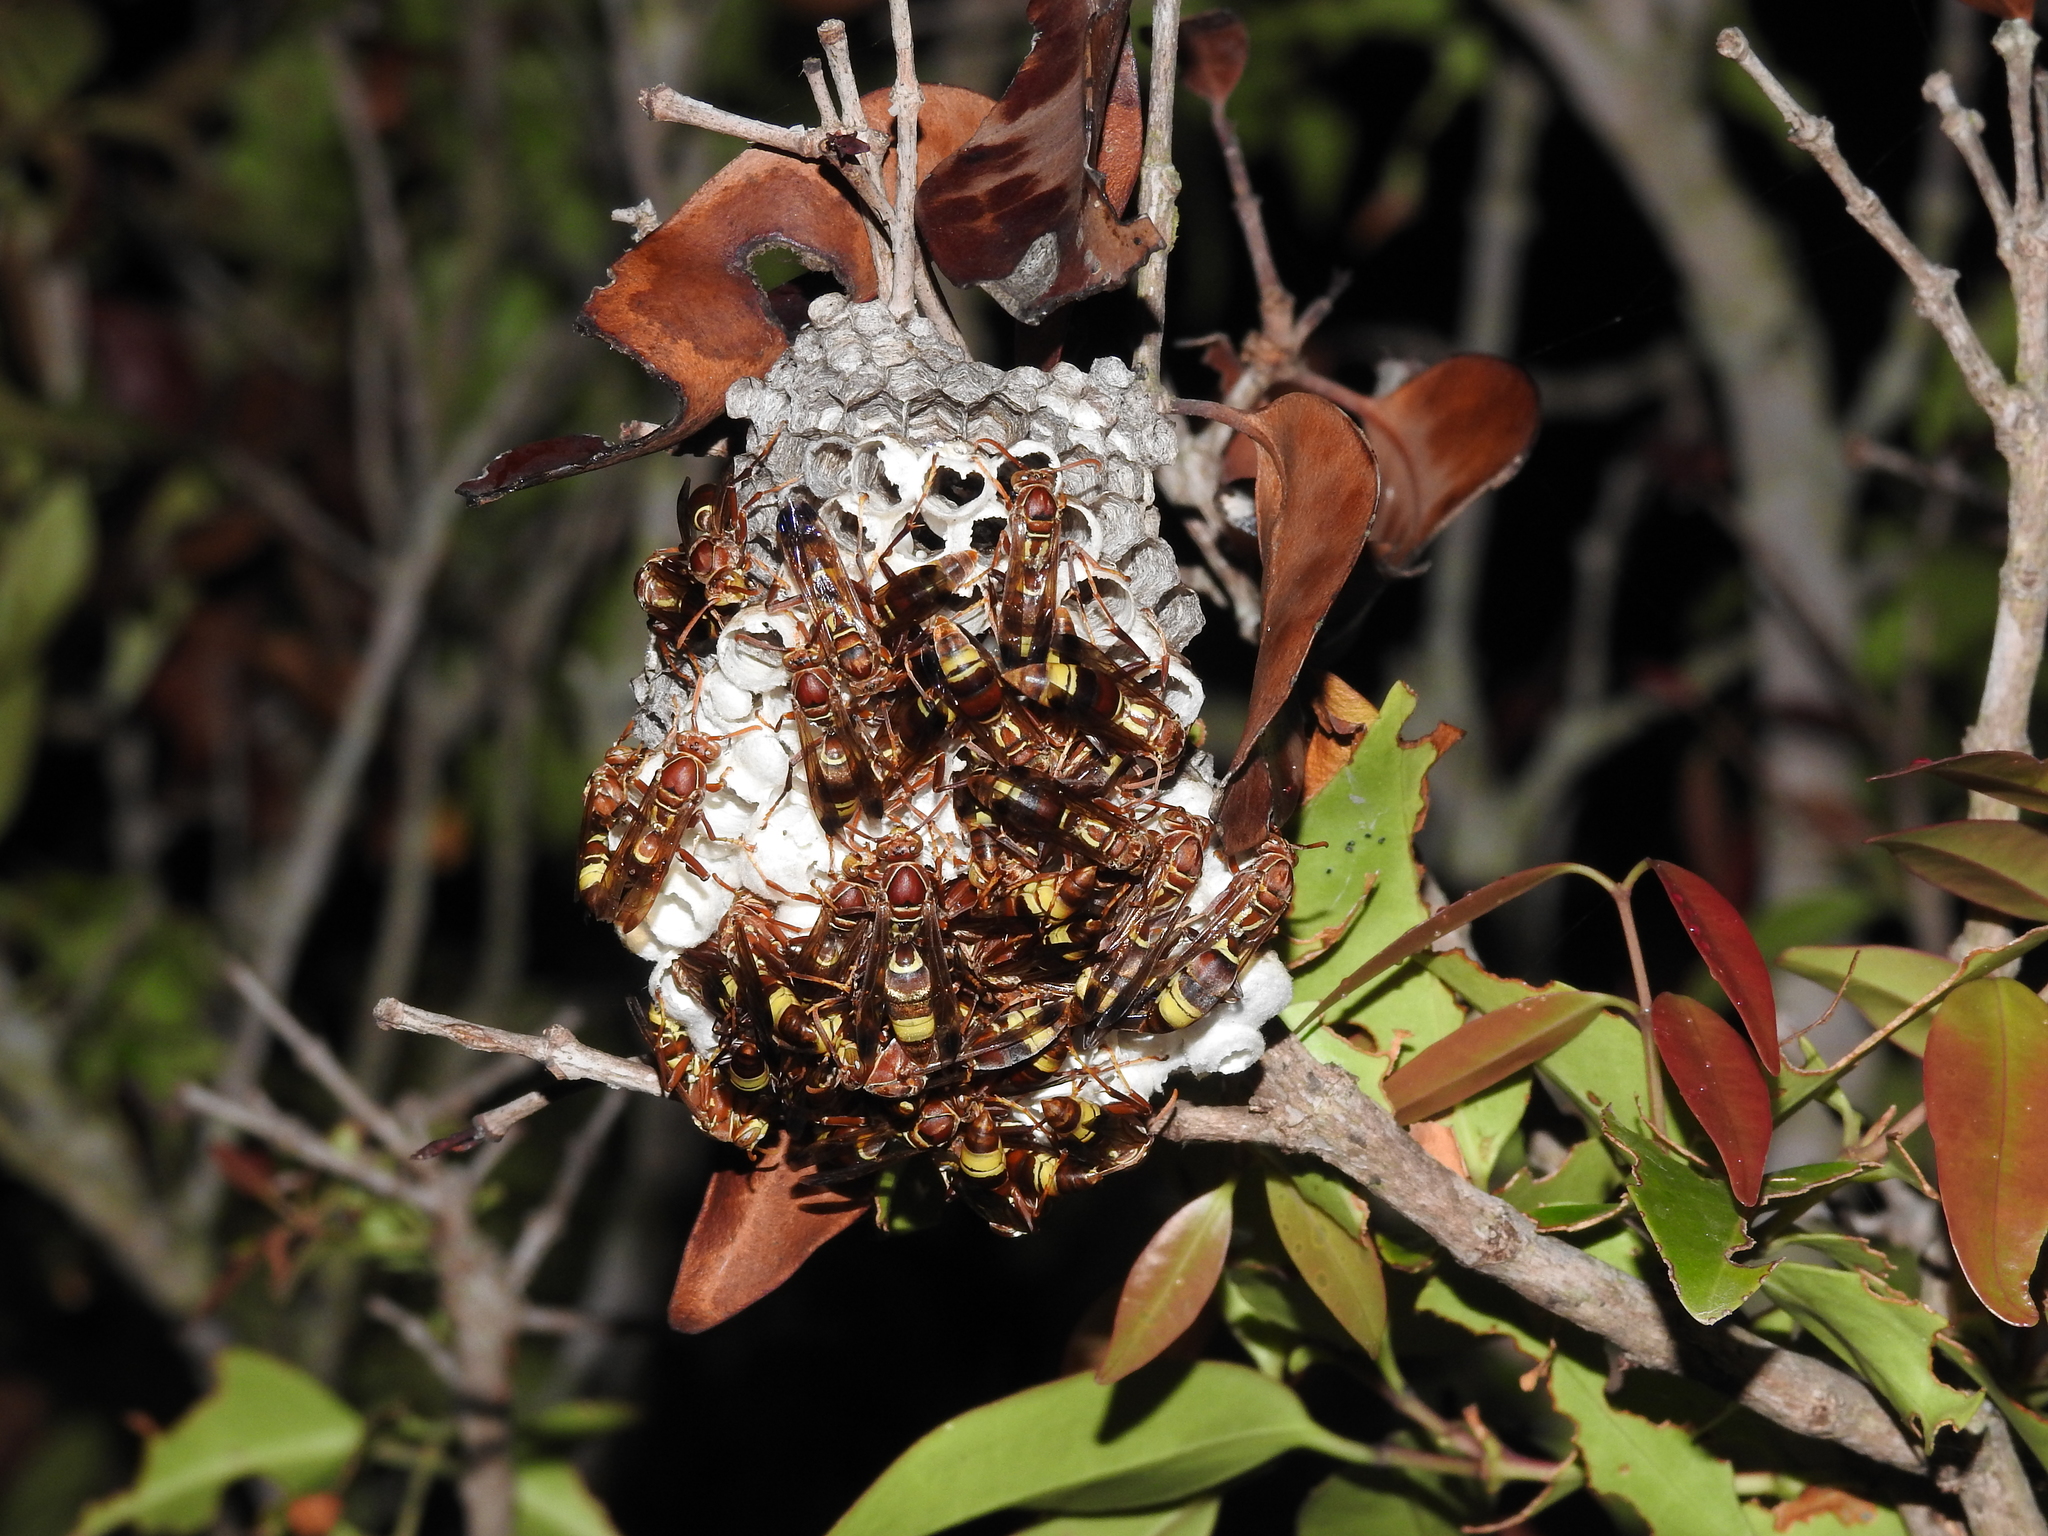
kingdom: Animalia
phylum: Arthropoda
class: Insecta
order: Hymenoptera
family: Eumenidae
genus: Polistes
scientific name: Polistes stigma
